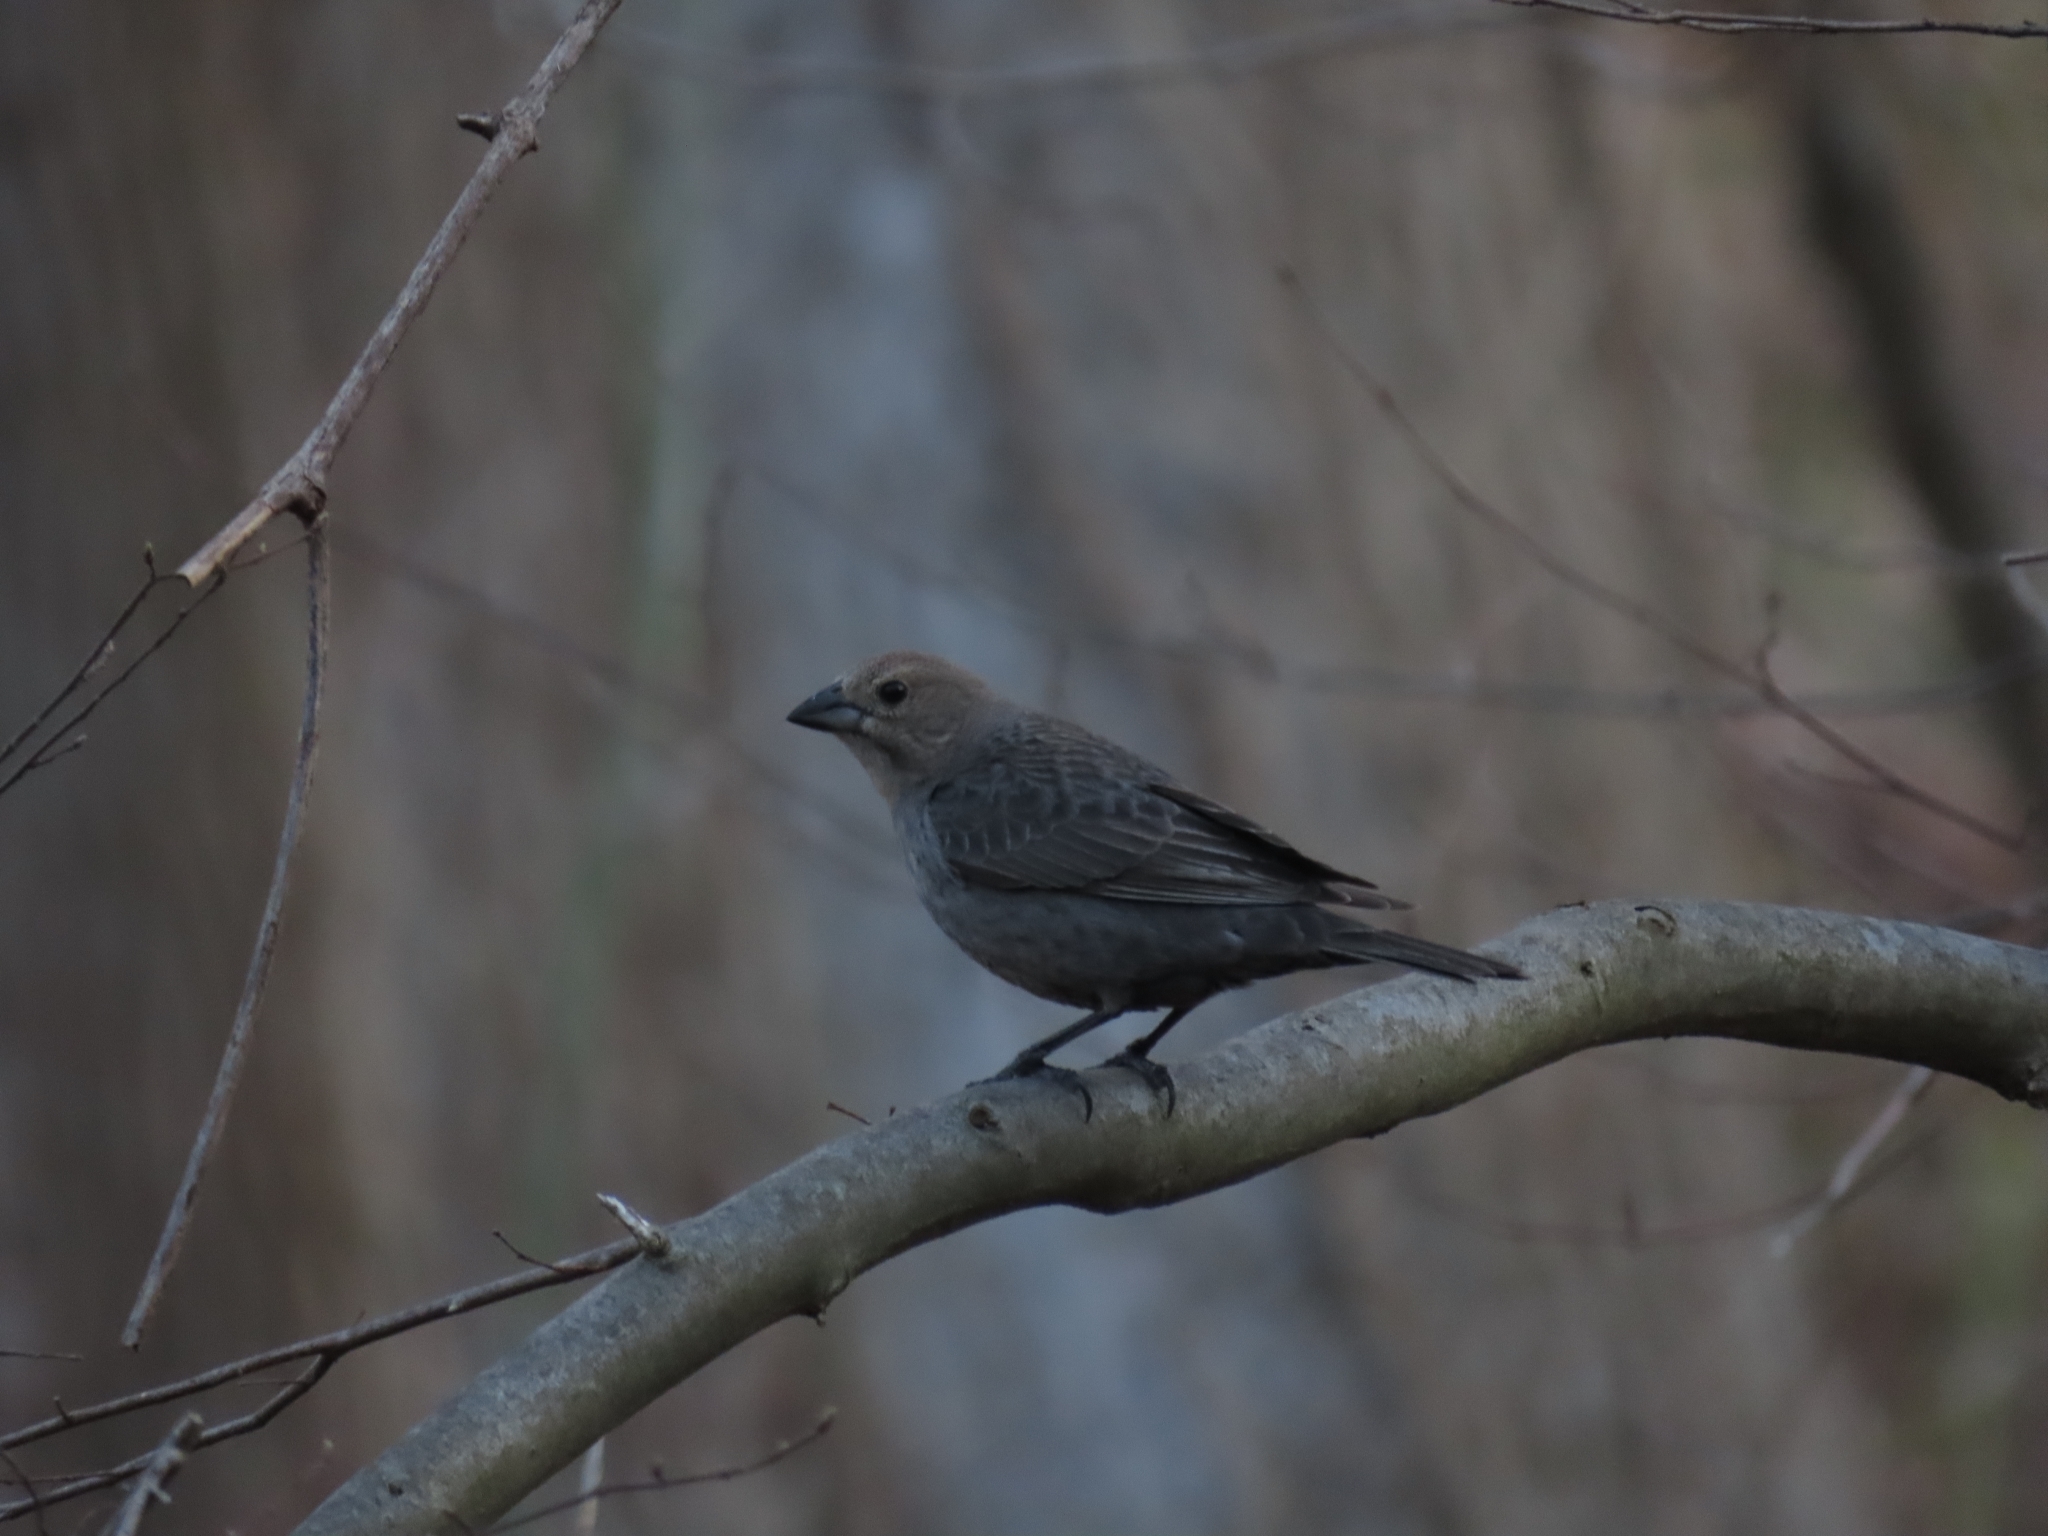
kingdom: Animalia
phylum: Chordata
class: Aves
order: Passeriformes
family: Icteridae
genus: Molothrus
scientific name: Molothrus ater
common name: Brown-headed cowbird
